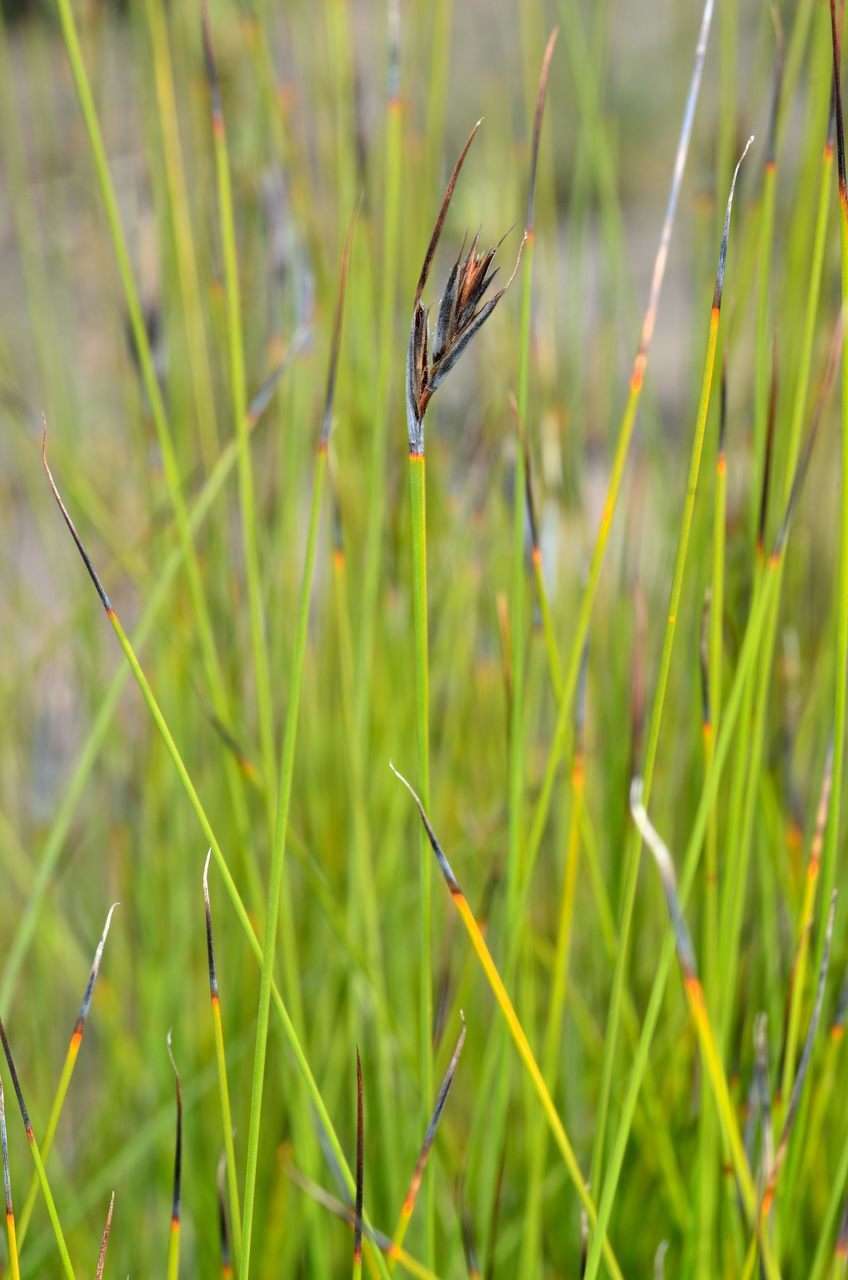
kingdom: Plantae
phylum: Tracheophyta
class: Liliopsida
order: Poales
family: Cyperaceae
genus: Lepidosperma
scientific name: Lepidosperma carphoides
